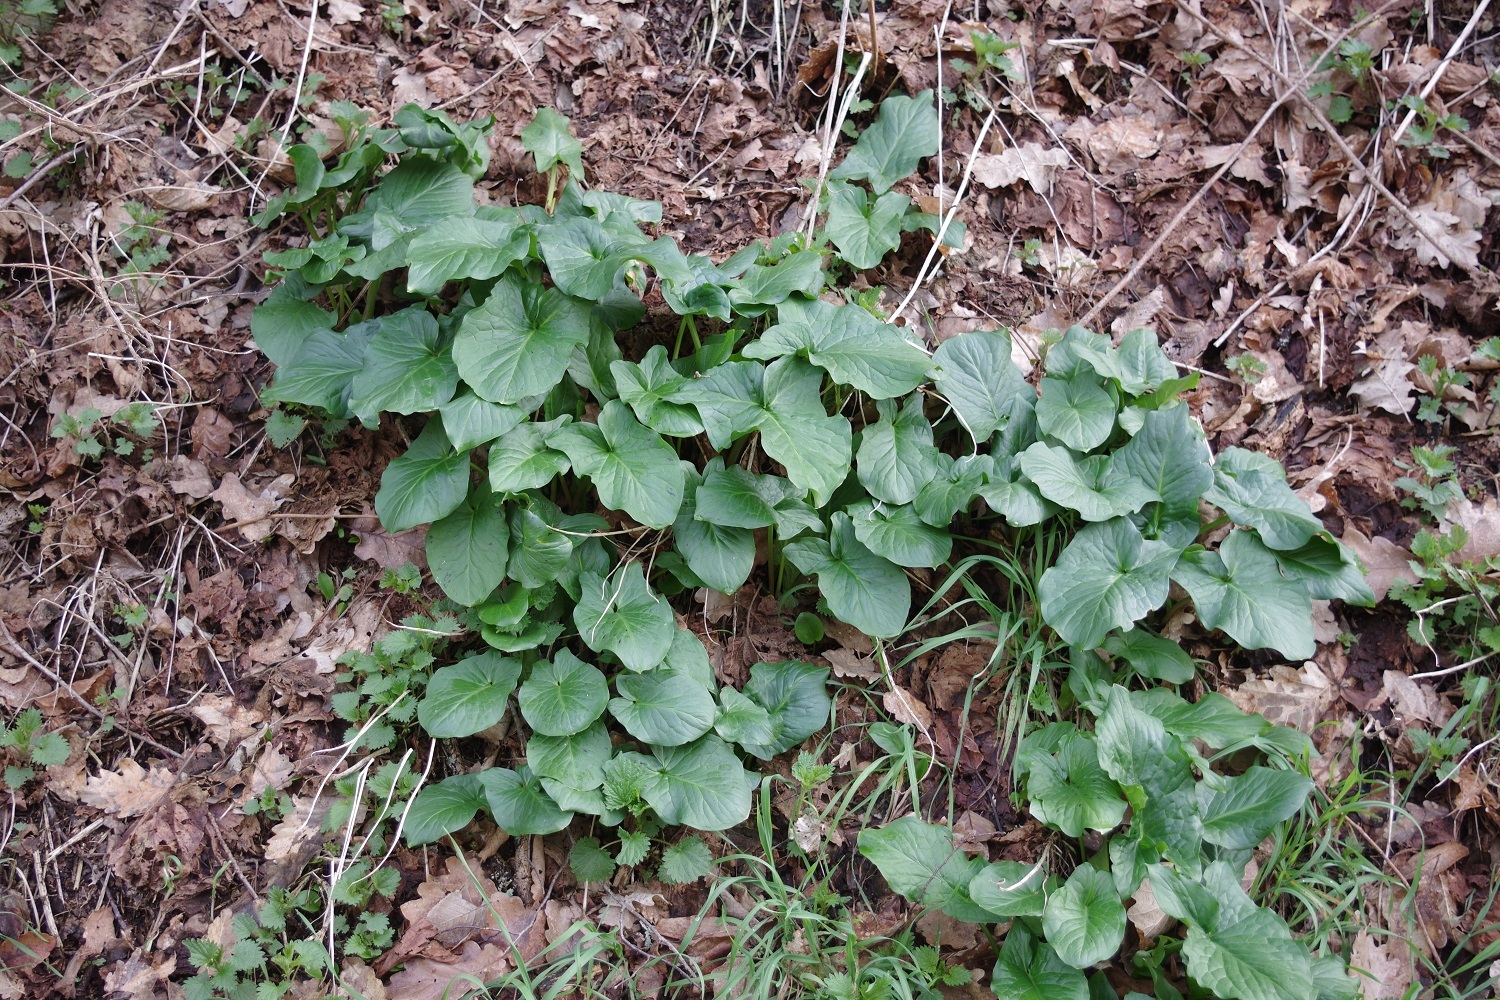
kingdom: Plantae
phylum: Tracheophyta
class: Liliopsida
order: Alismatales
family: Araceae
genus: Arum
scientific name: Arum maculatum
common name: Lords-and-ladies
